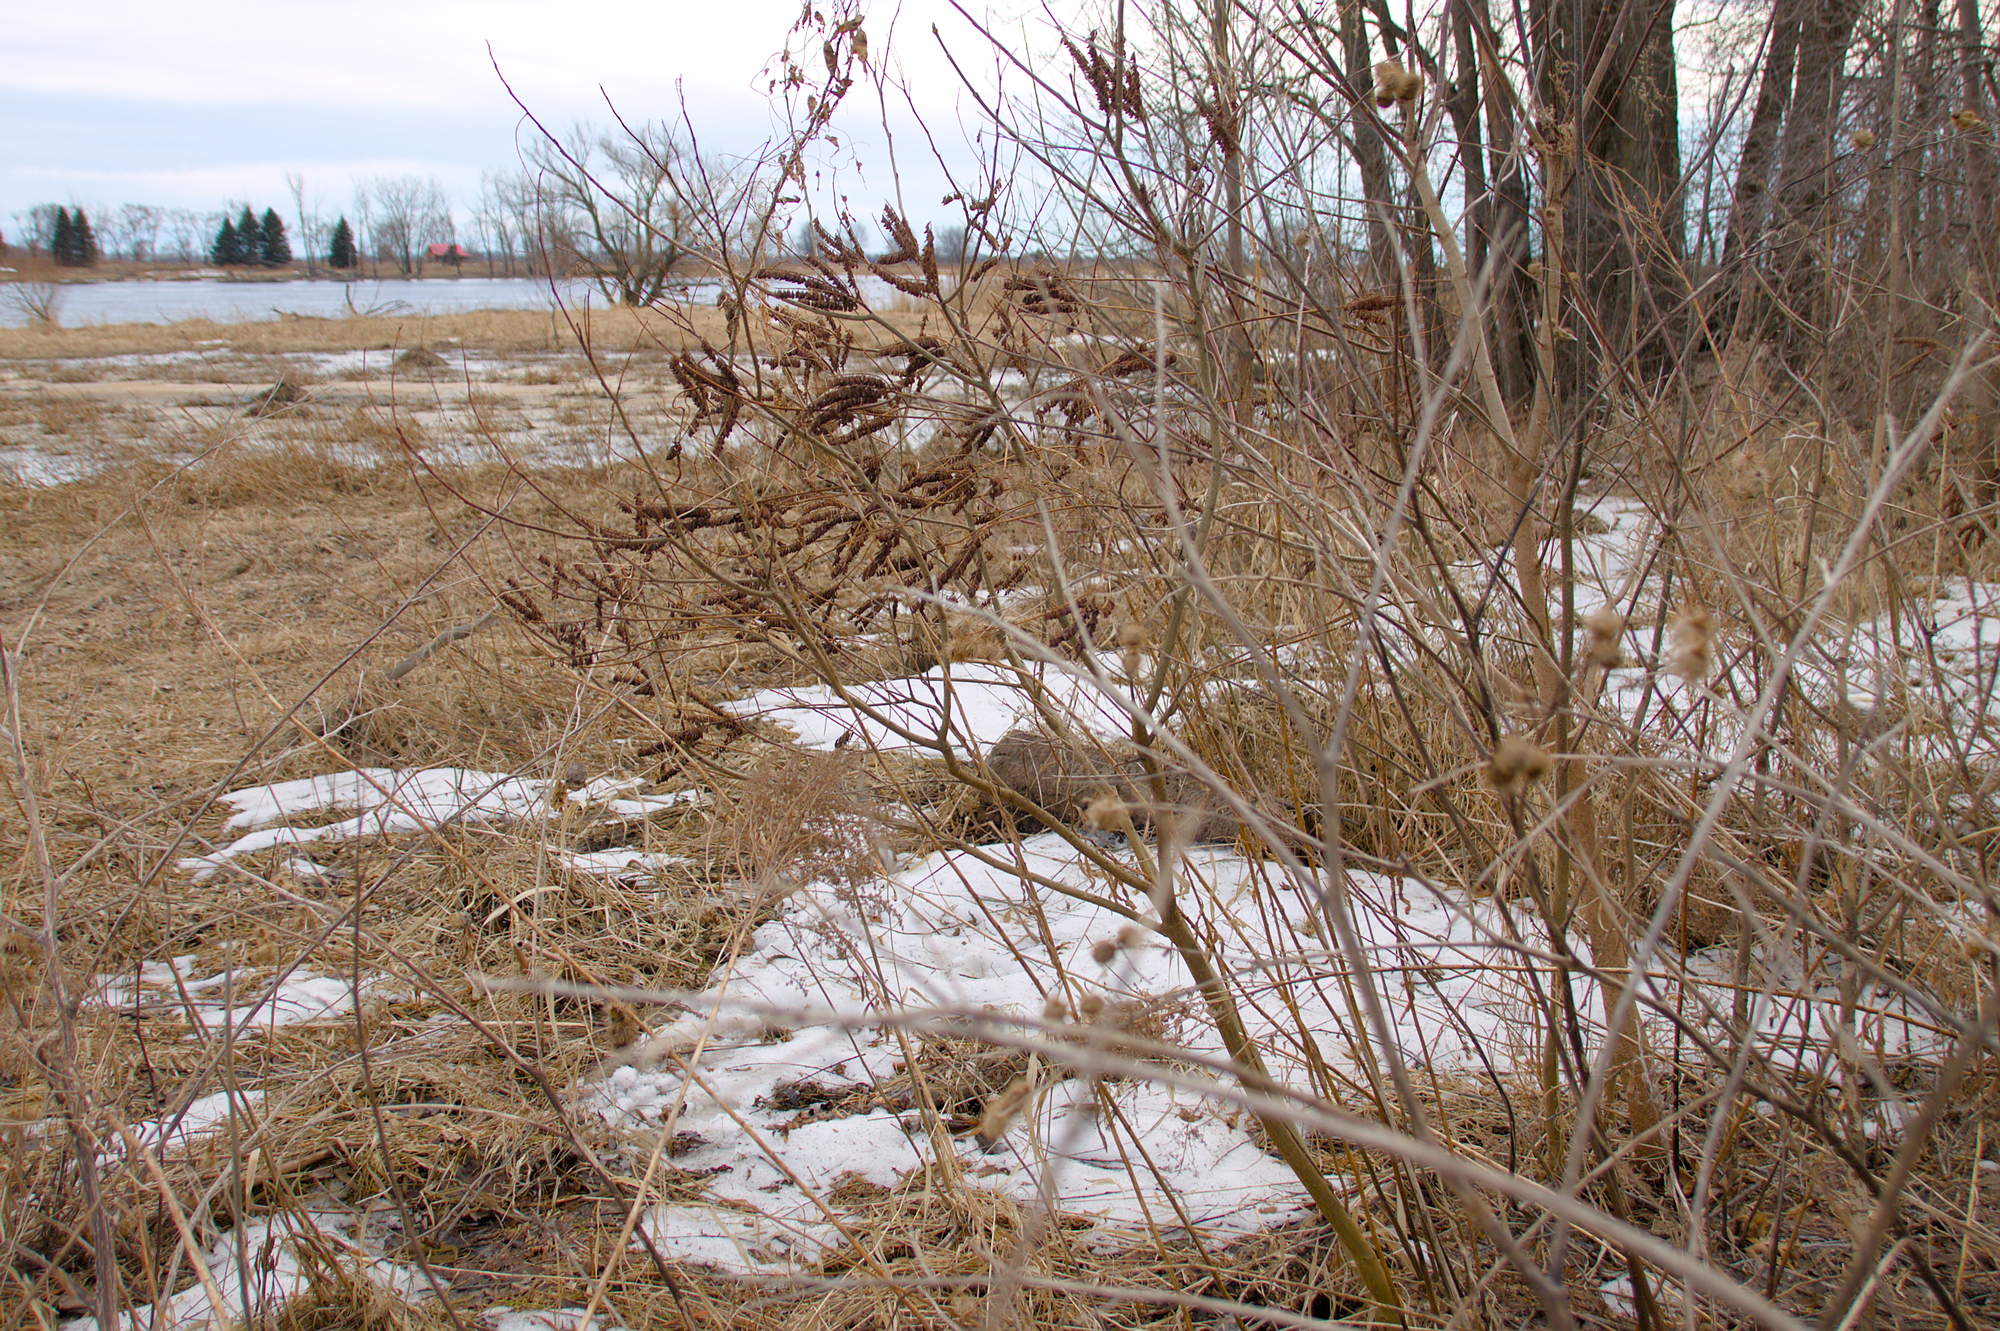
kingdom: Plantae
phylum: Tracheophyta
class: Magnoliopsida
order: Fabales
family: Fabaceae
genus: Amorpha
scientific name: Amorpha fruticosa
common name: False indigo
